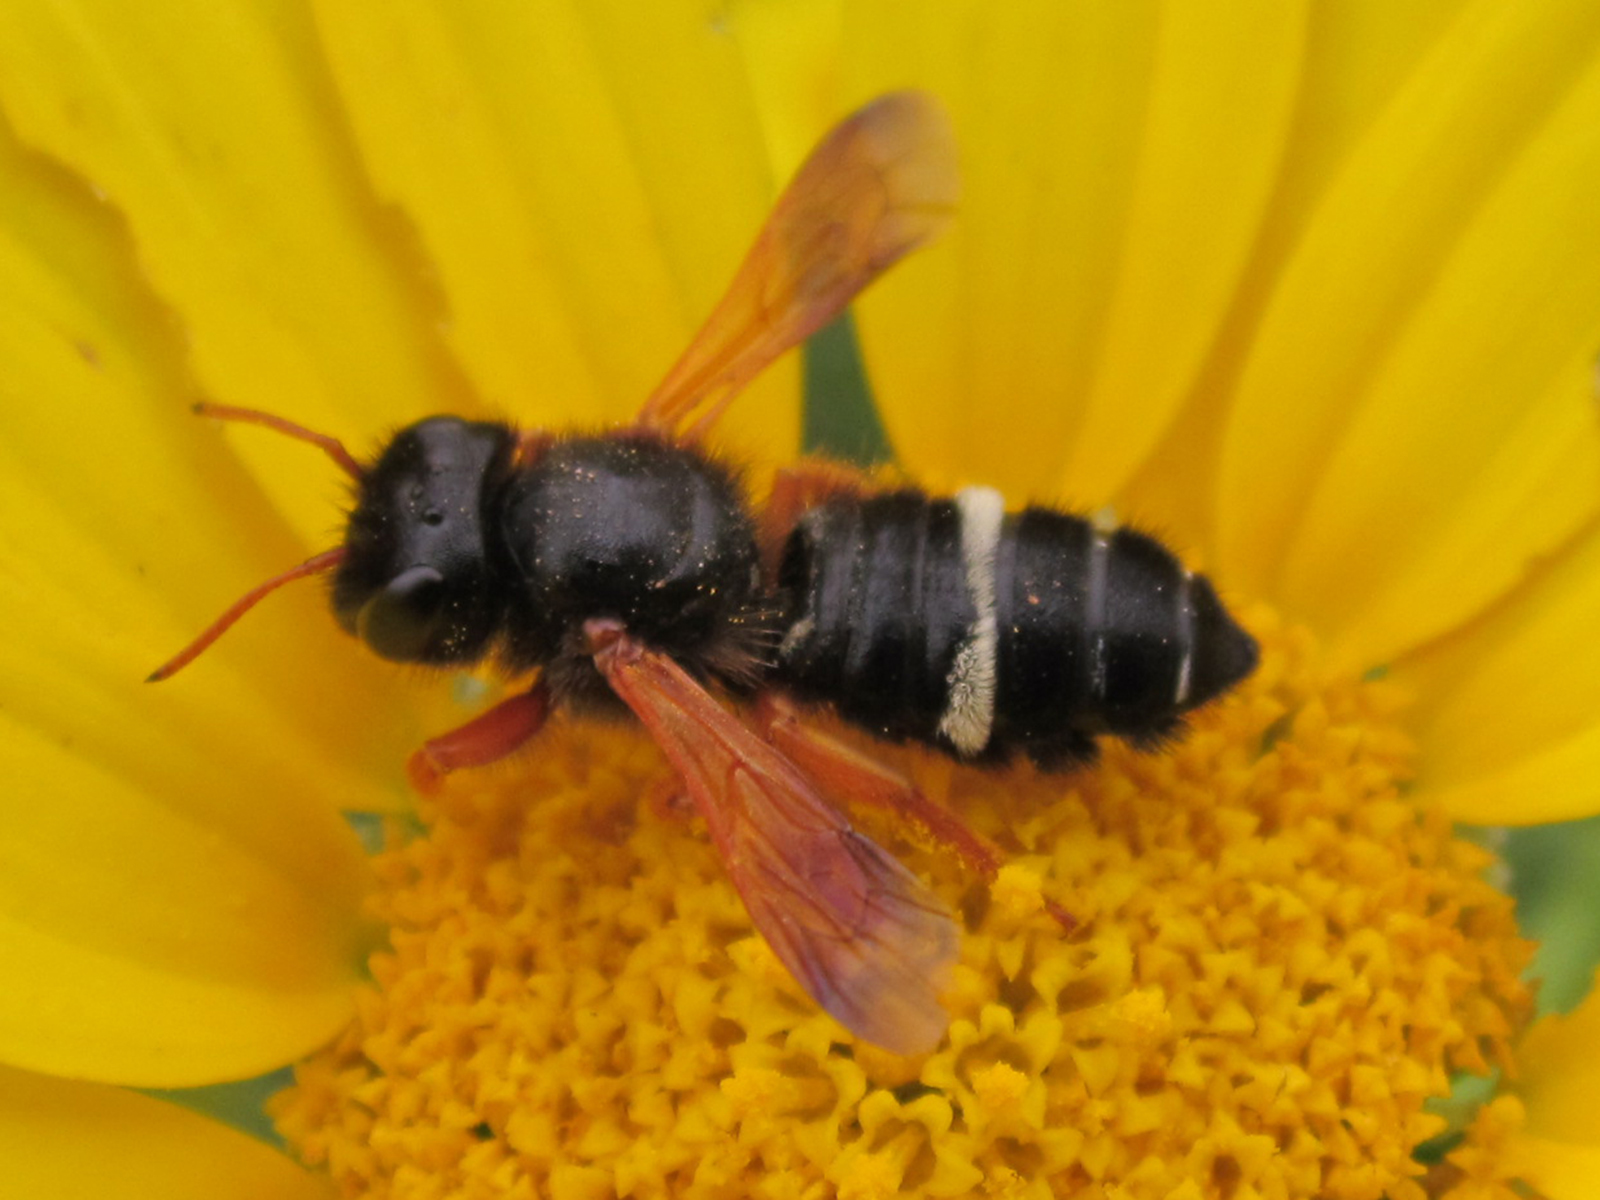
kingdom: Animalia
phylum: Arthropoda
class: Insecta
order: Hymenoptera
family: Megachilidae
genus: Megachile
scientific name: Megachile euzona
